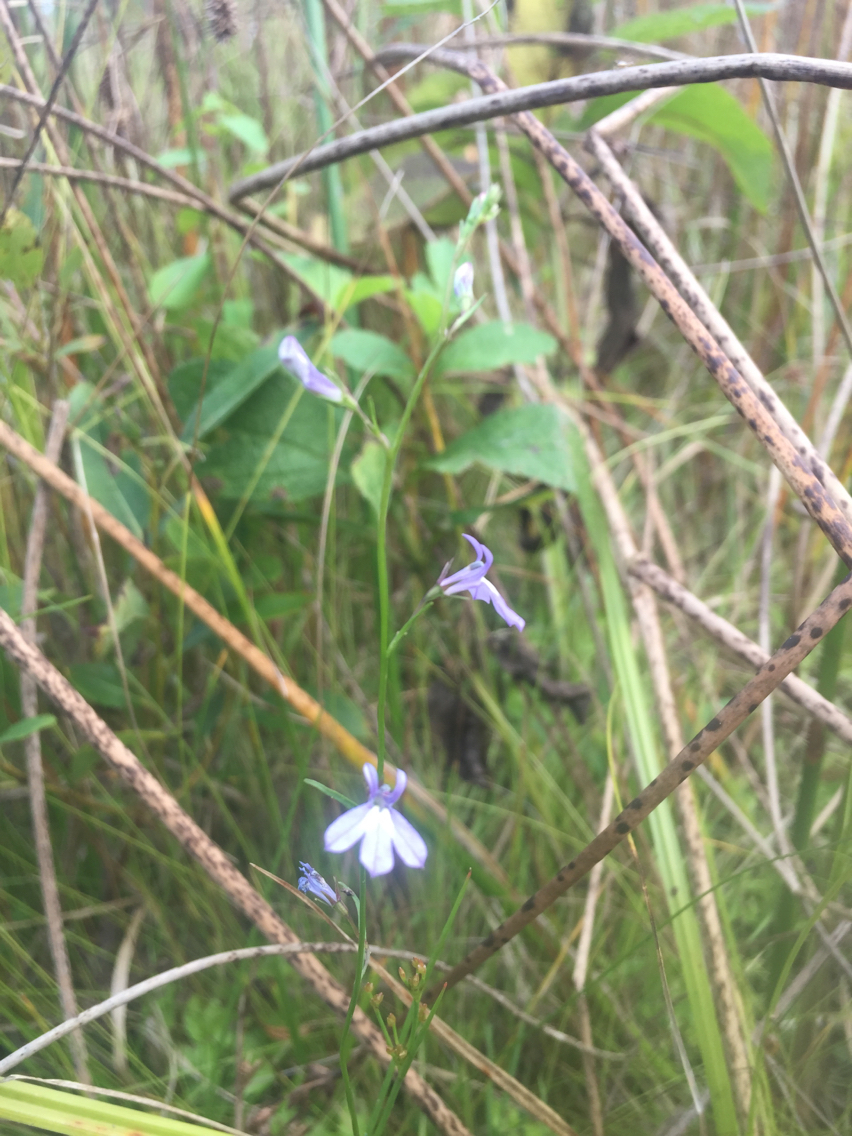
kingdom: Plantae
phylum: Tracheophyta
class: Magnoliopsida
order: Asterales
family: Campanulaceae
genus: Lobelia
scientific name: Lobelia kalmii
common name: Kalm's lobelia
